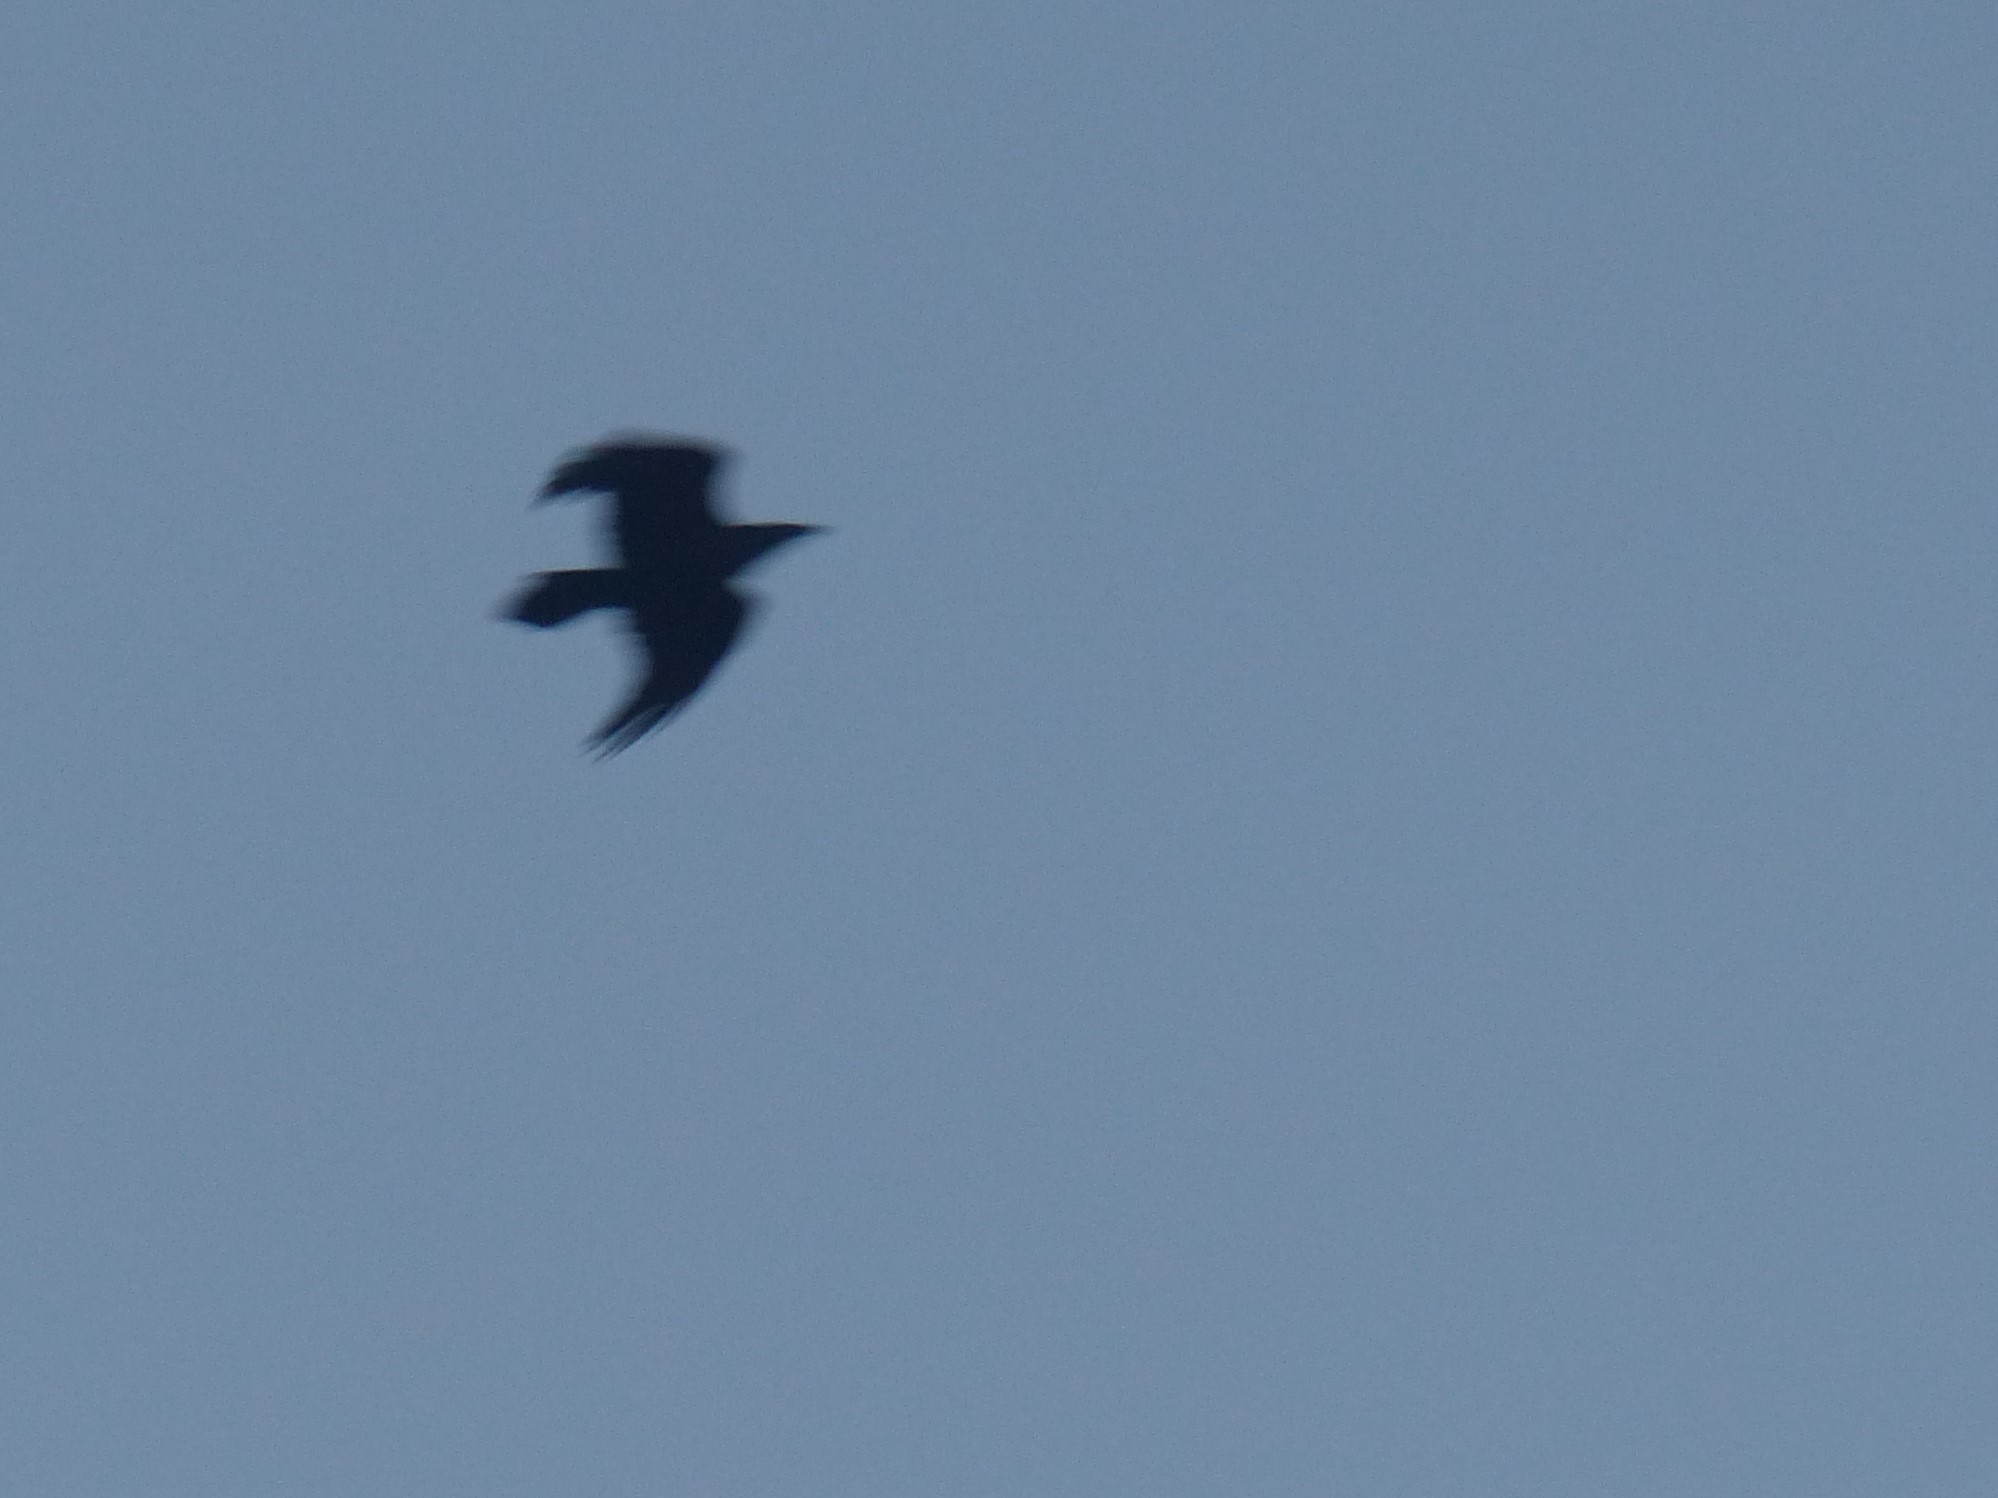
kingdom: Animalia
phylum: Chordata
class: Aves
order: Passeriformes
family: Corvidae
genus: Corvus
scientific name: Corvus corax
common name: Common raven
